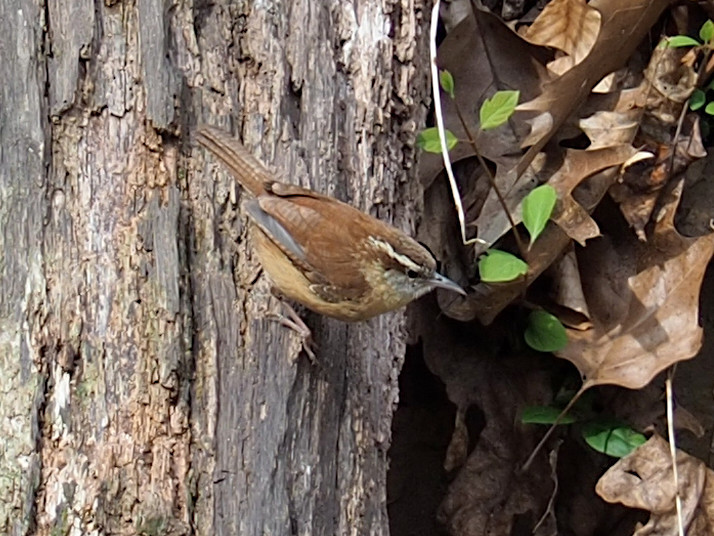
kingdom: Animalia
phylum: Chordata
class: Aves
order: Passeriformes
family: Troglodytidae
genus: Thryothorus
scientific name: Thryothorus ludovicianus
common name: Carolina wren
